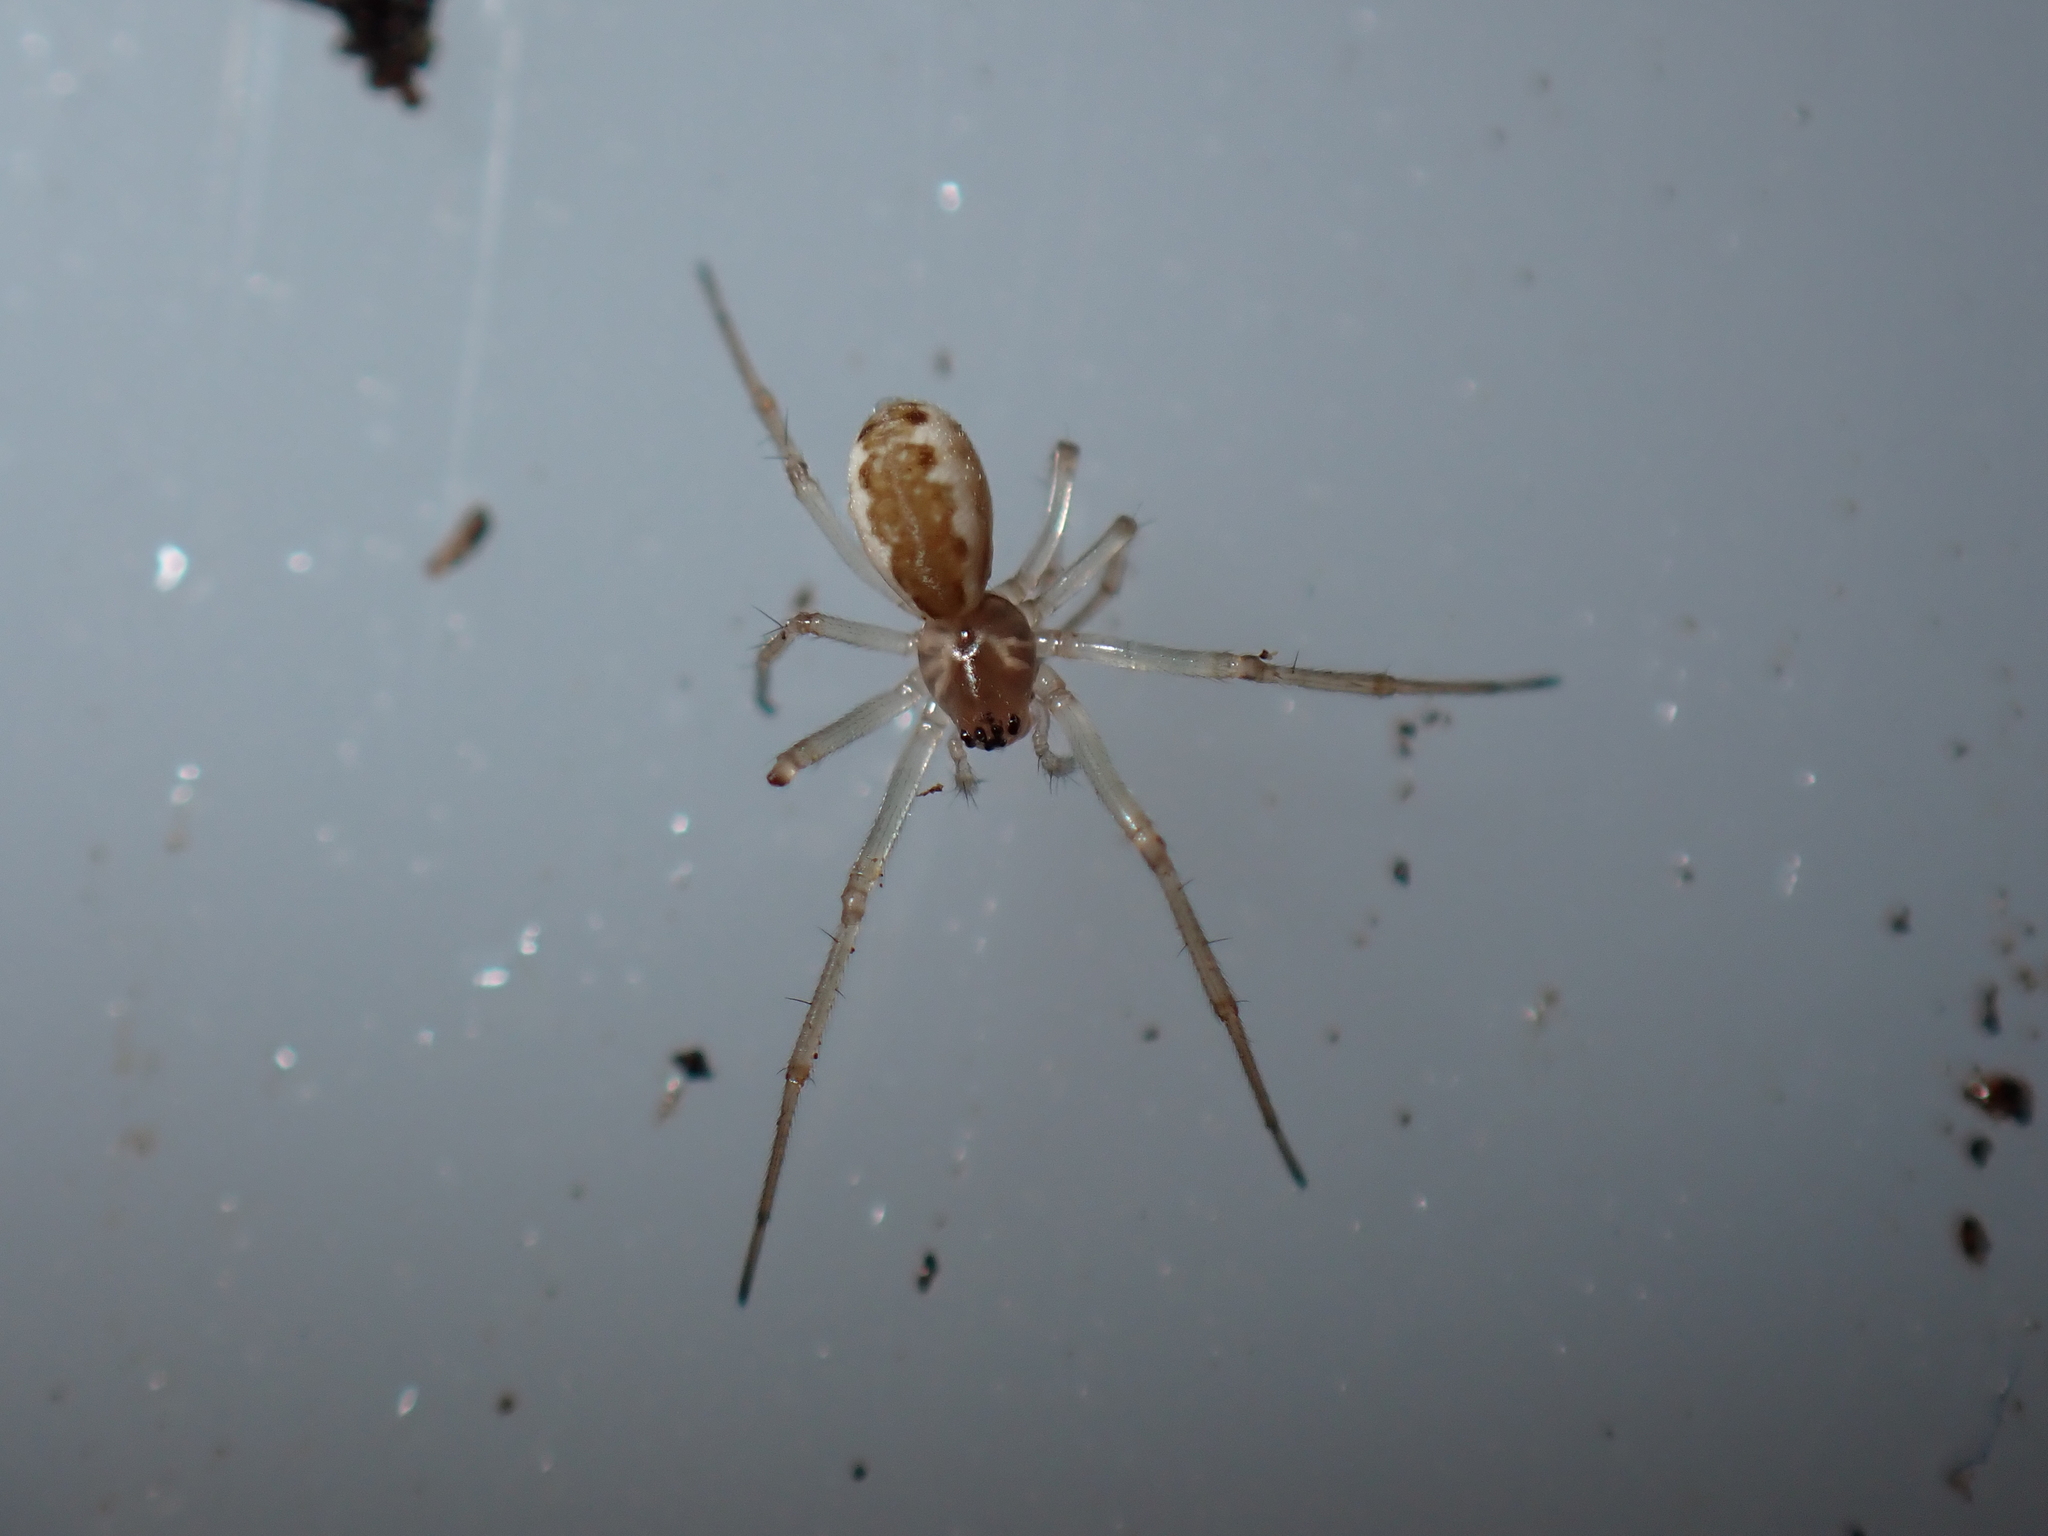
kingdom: Animalia
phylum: Arthropoda
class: Arachnida
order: Araneae
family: Linyphiidae
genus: Neriene
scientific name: Neriene peltata
